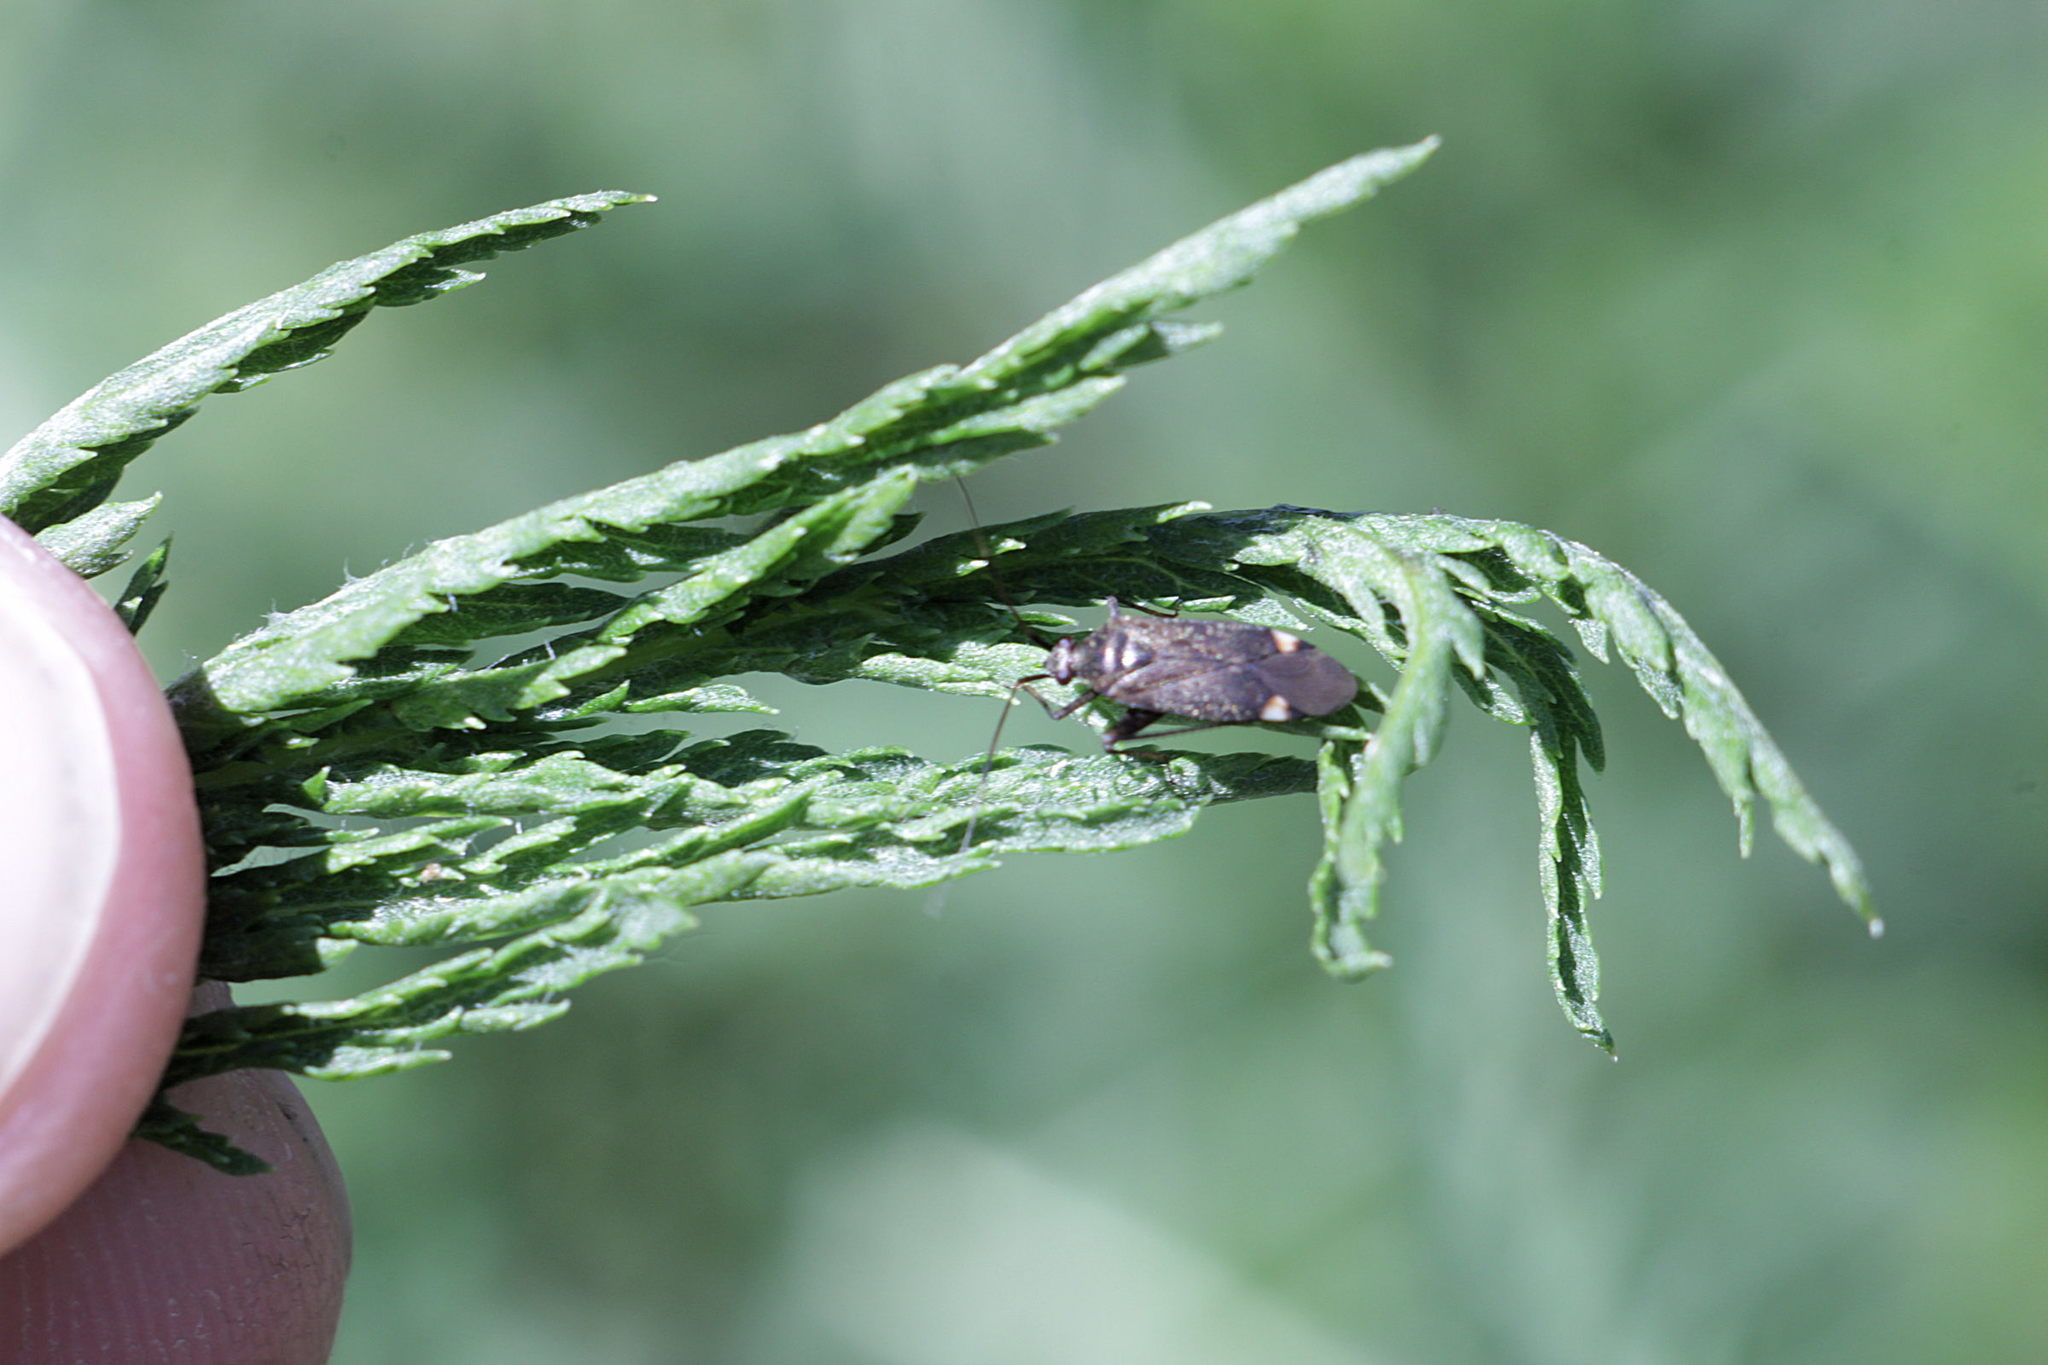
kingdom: Animalia
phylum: Arthropoda
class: Insecta
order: Hemiptera
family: Miridae
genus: Closterotomus
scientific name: Closterotomus fulvomaculatus
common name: Spotted plant bug
